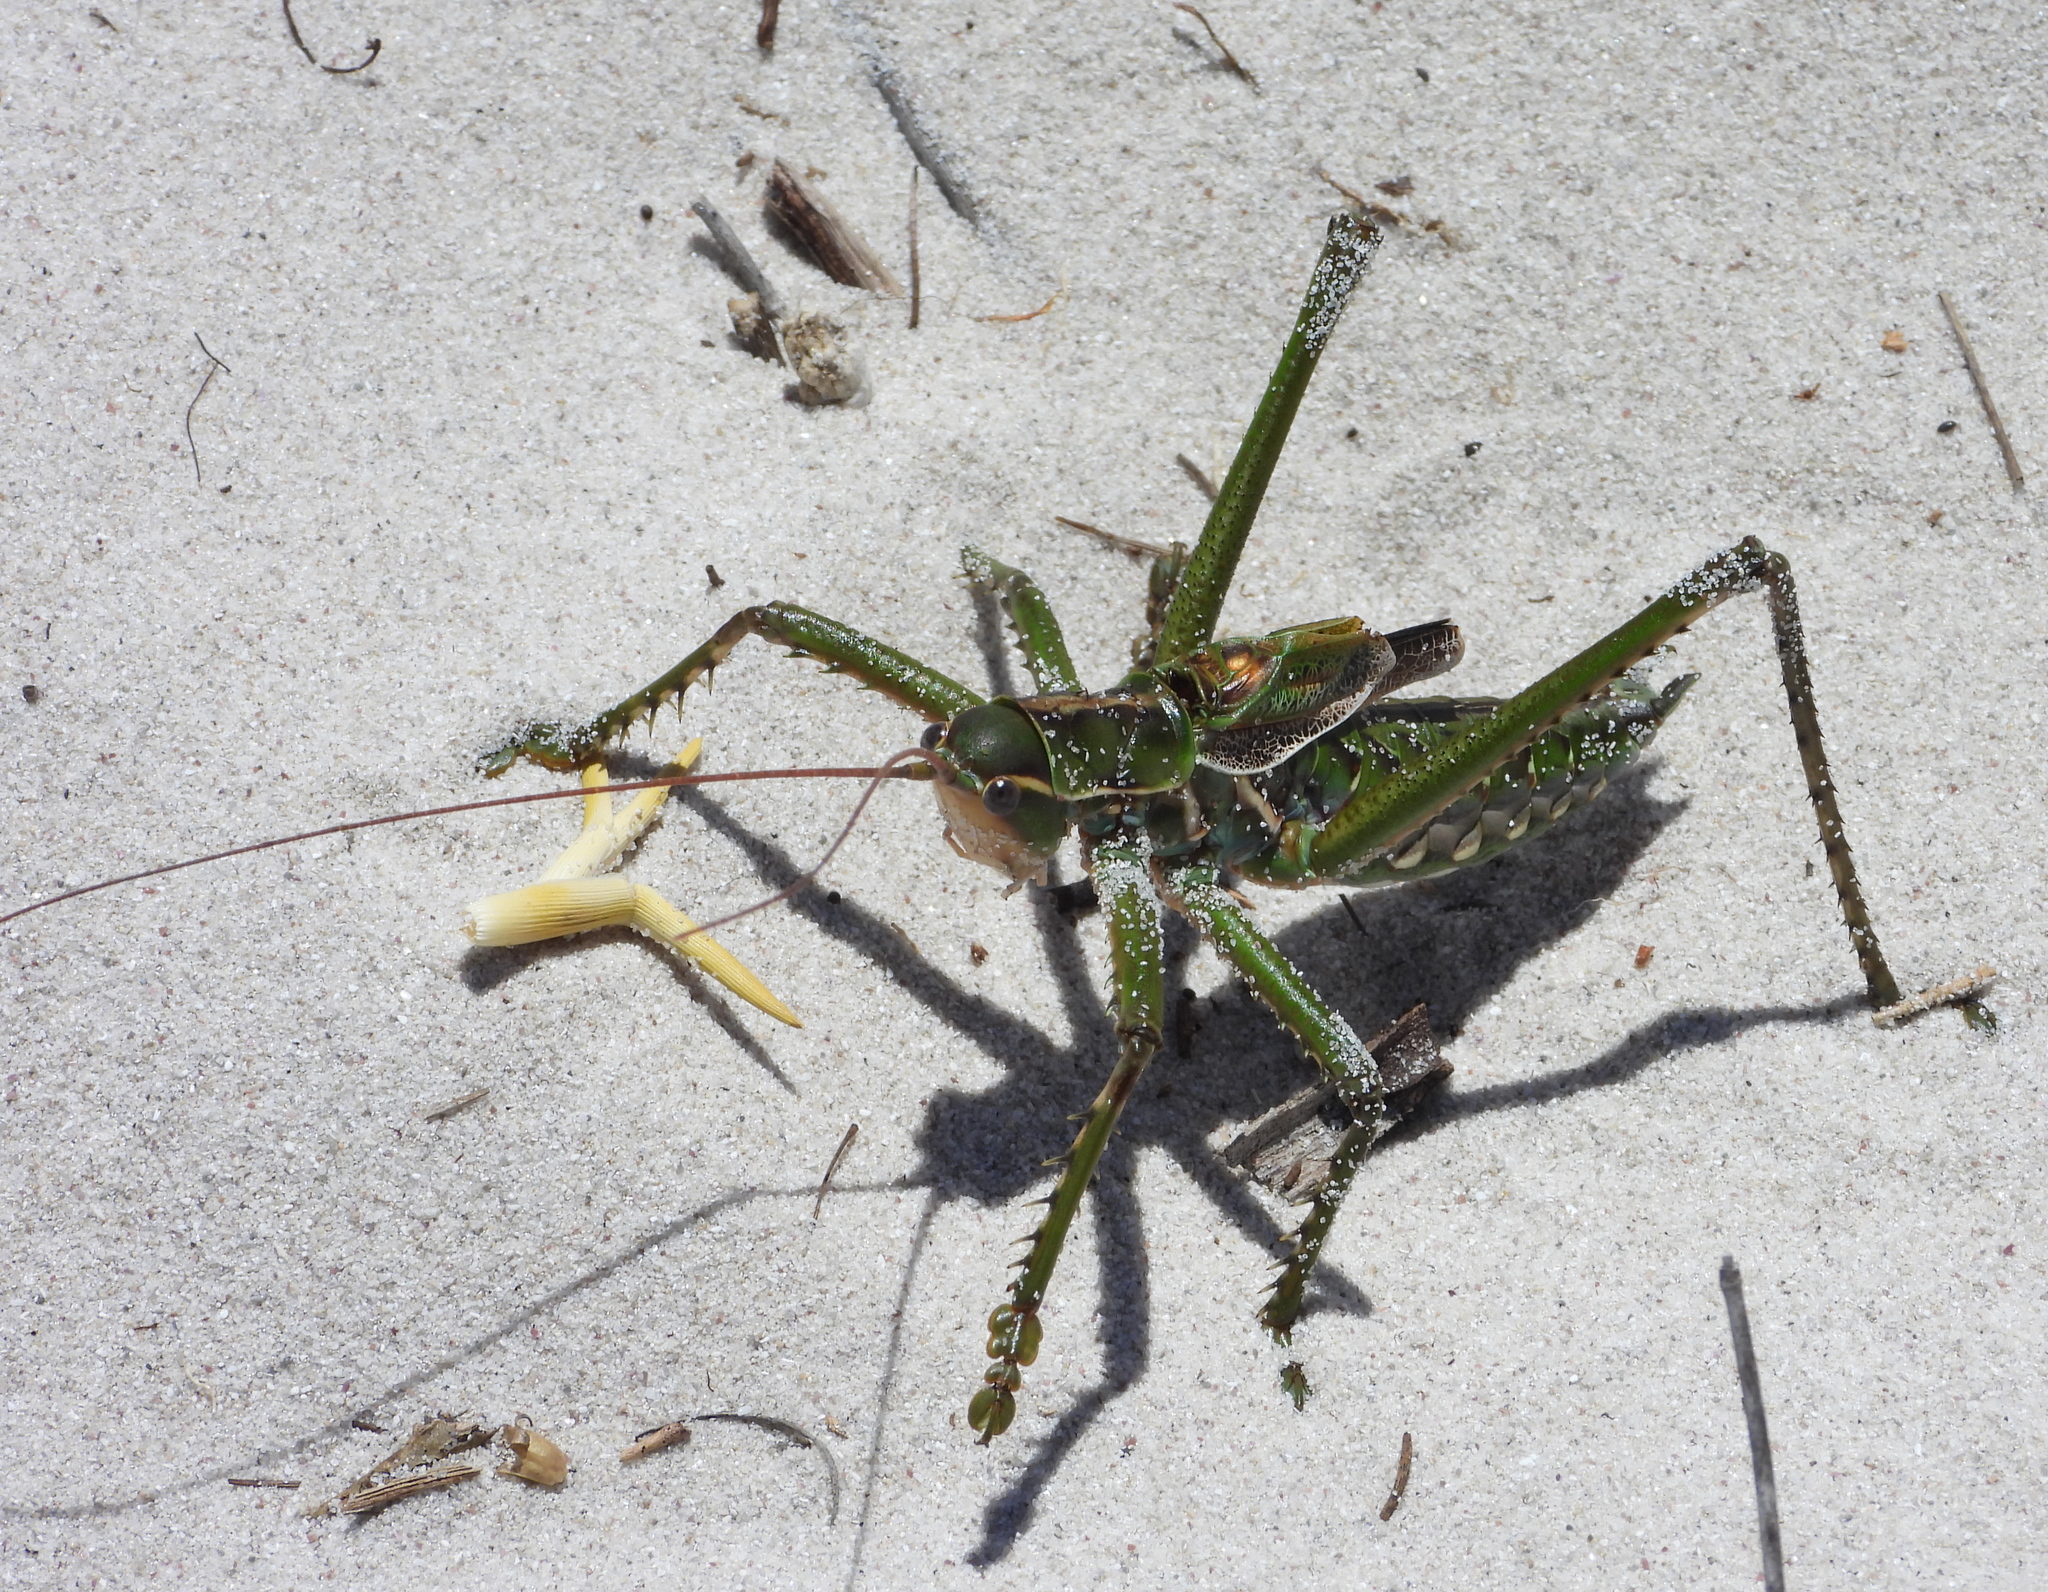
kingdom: Animalia
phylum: Arthropoda
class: Insecta
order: Orthoptera
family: Tettigoniidae
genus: Clonia
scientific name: Clonia melanoptera
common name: Giant black-winged clonia
